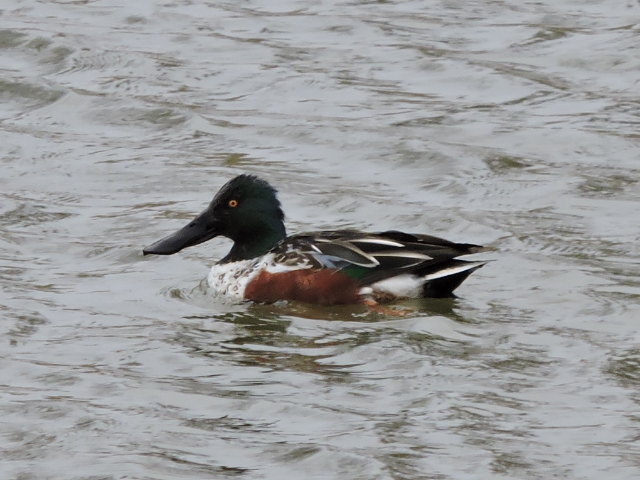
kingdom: Animalia
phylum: Chordata
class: Aves
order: Anseriformes
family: Anatidae
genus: Spatula
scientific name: Spatula clypeata
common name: Northern shoveler
